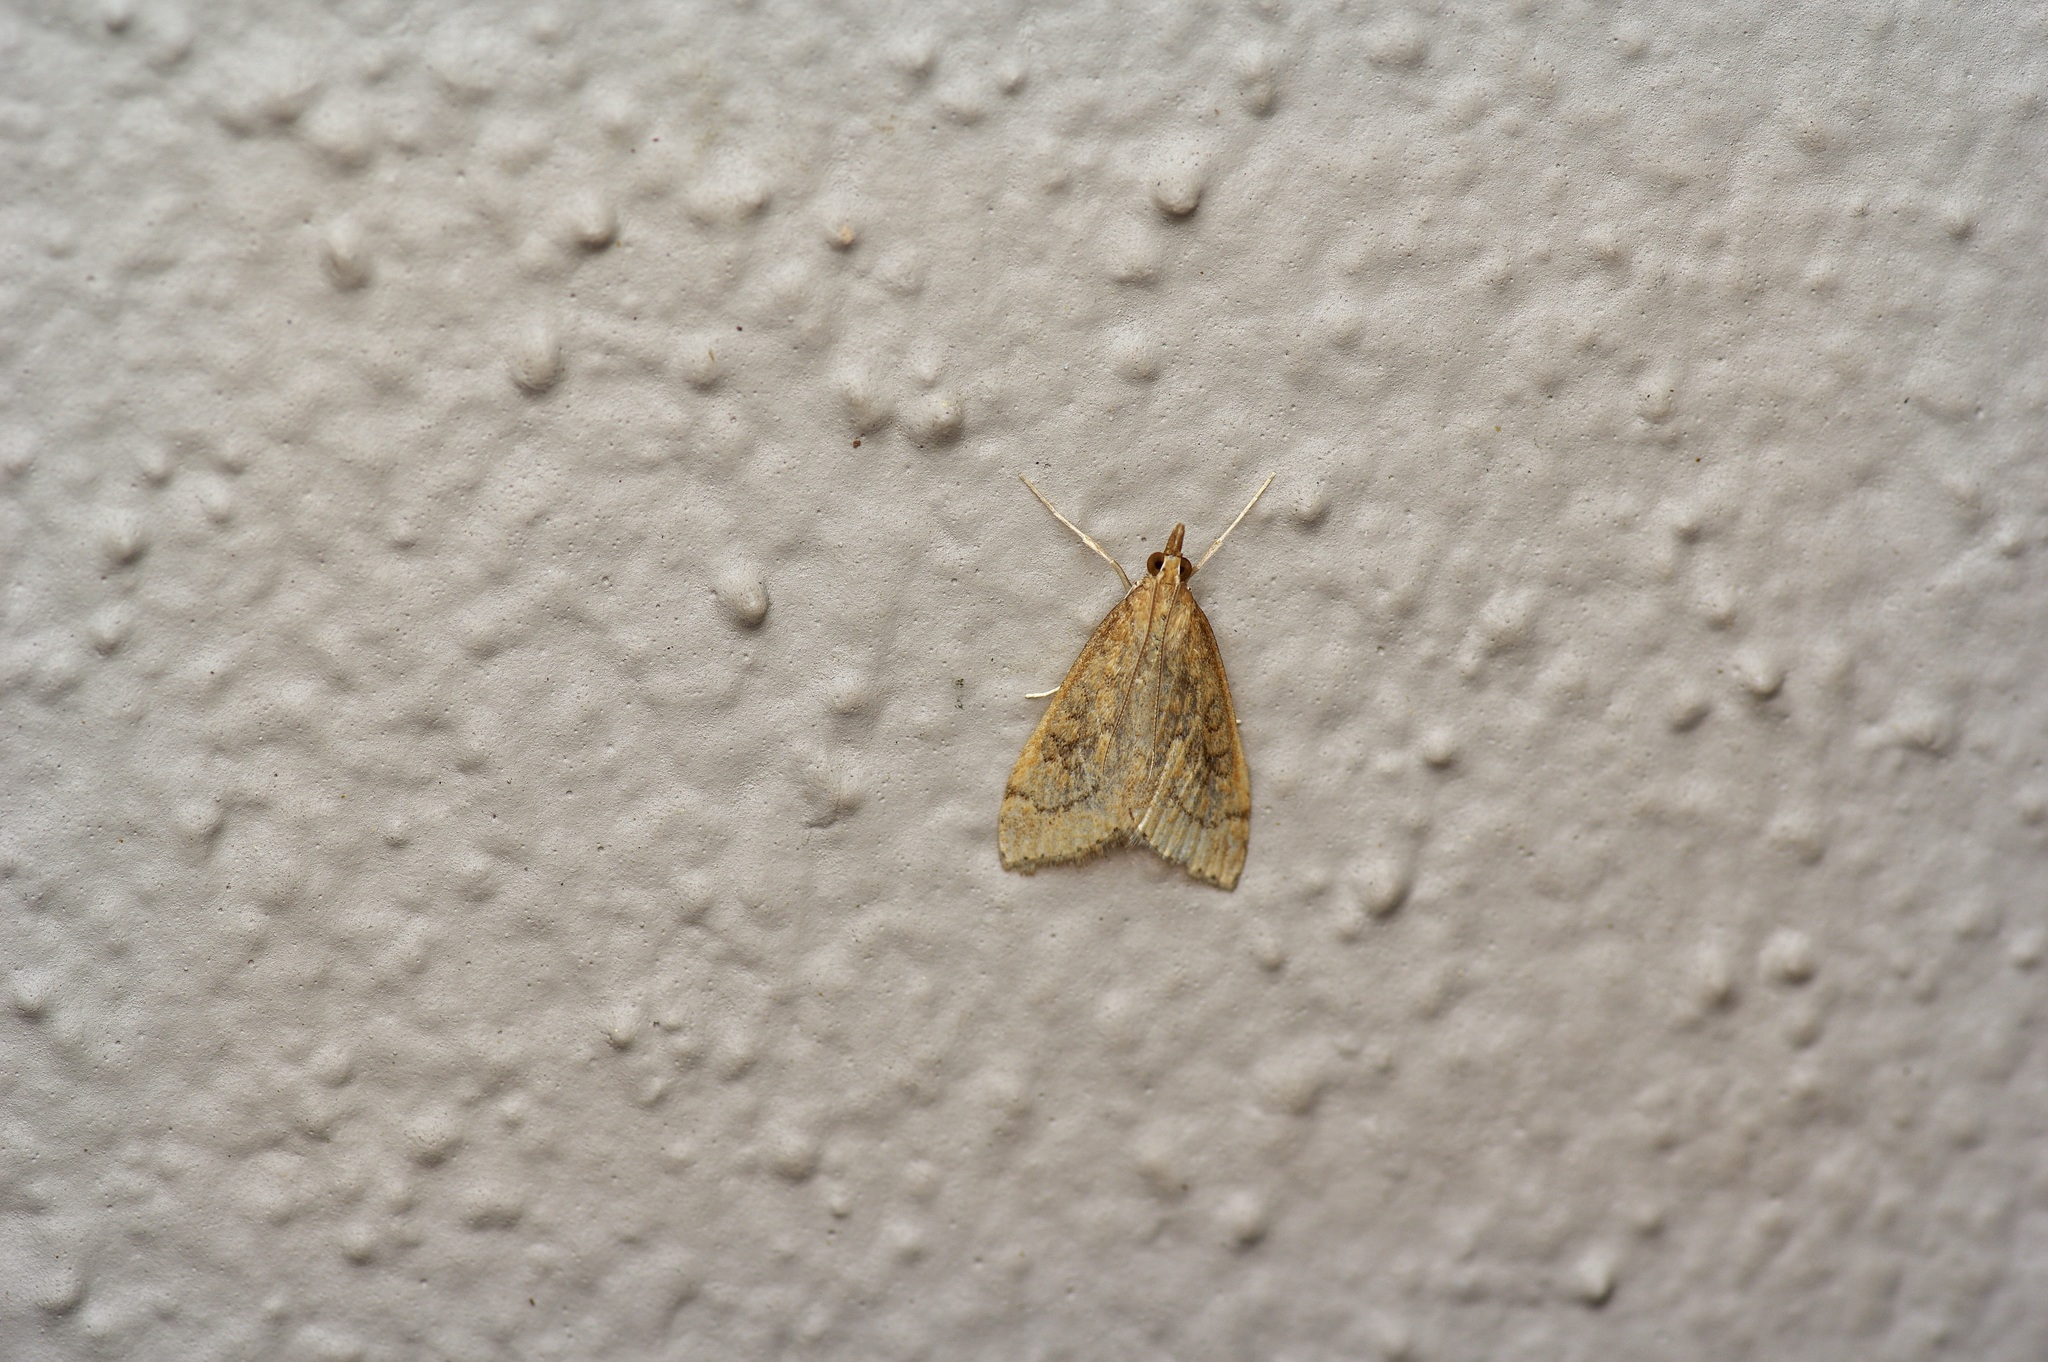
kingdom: Animalia
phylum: Arthropoda
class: Insecta
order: Lepidoptera
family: Crambidae
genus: Udea
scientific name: Udea rubigalis
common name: Celery leaftier moth
